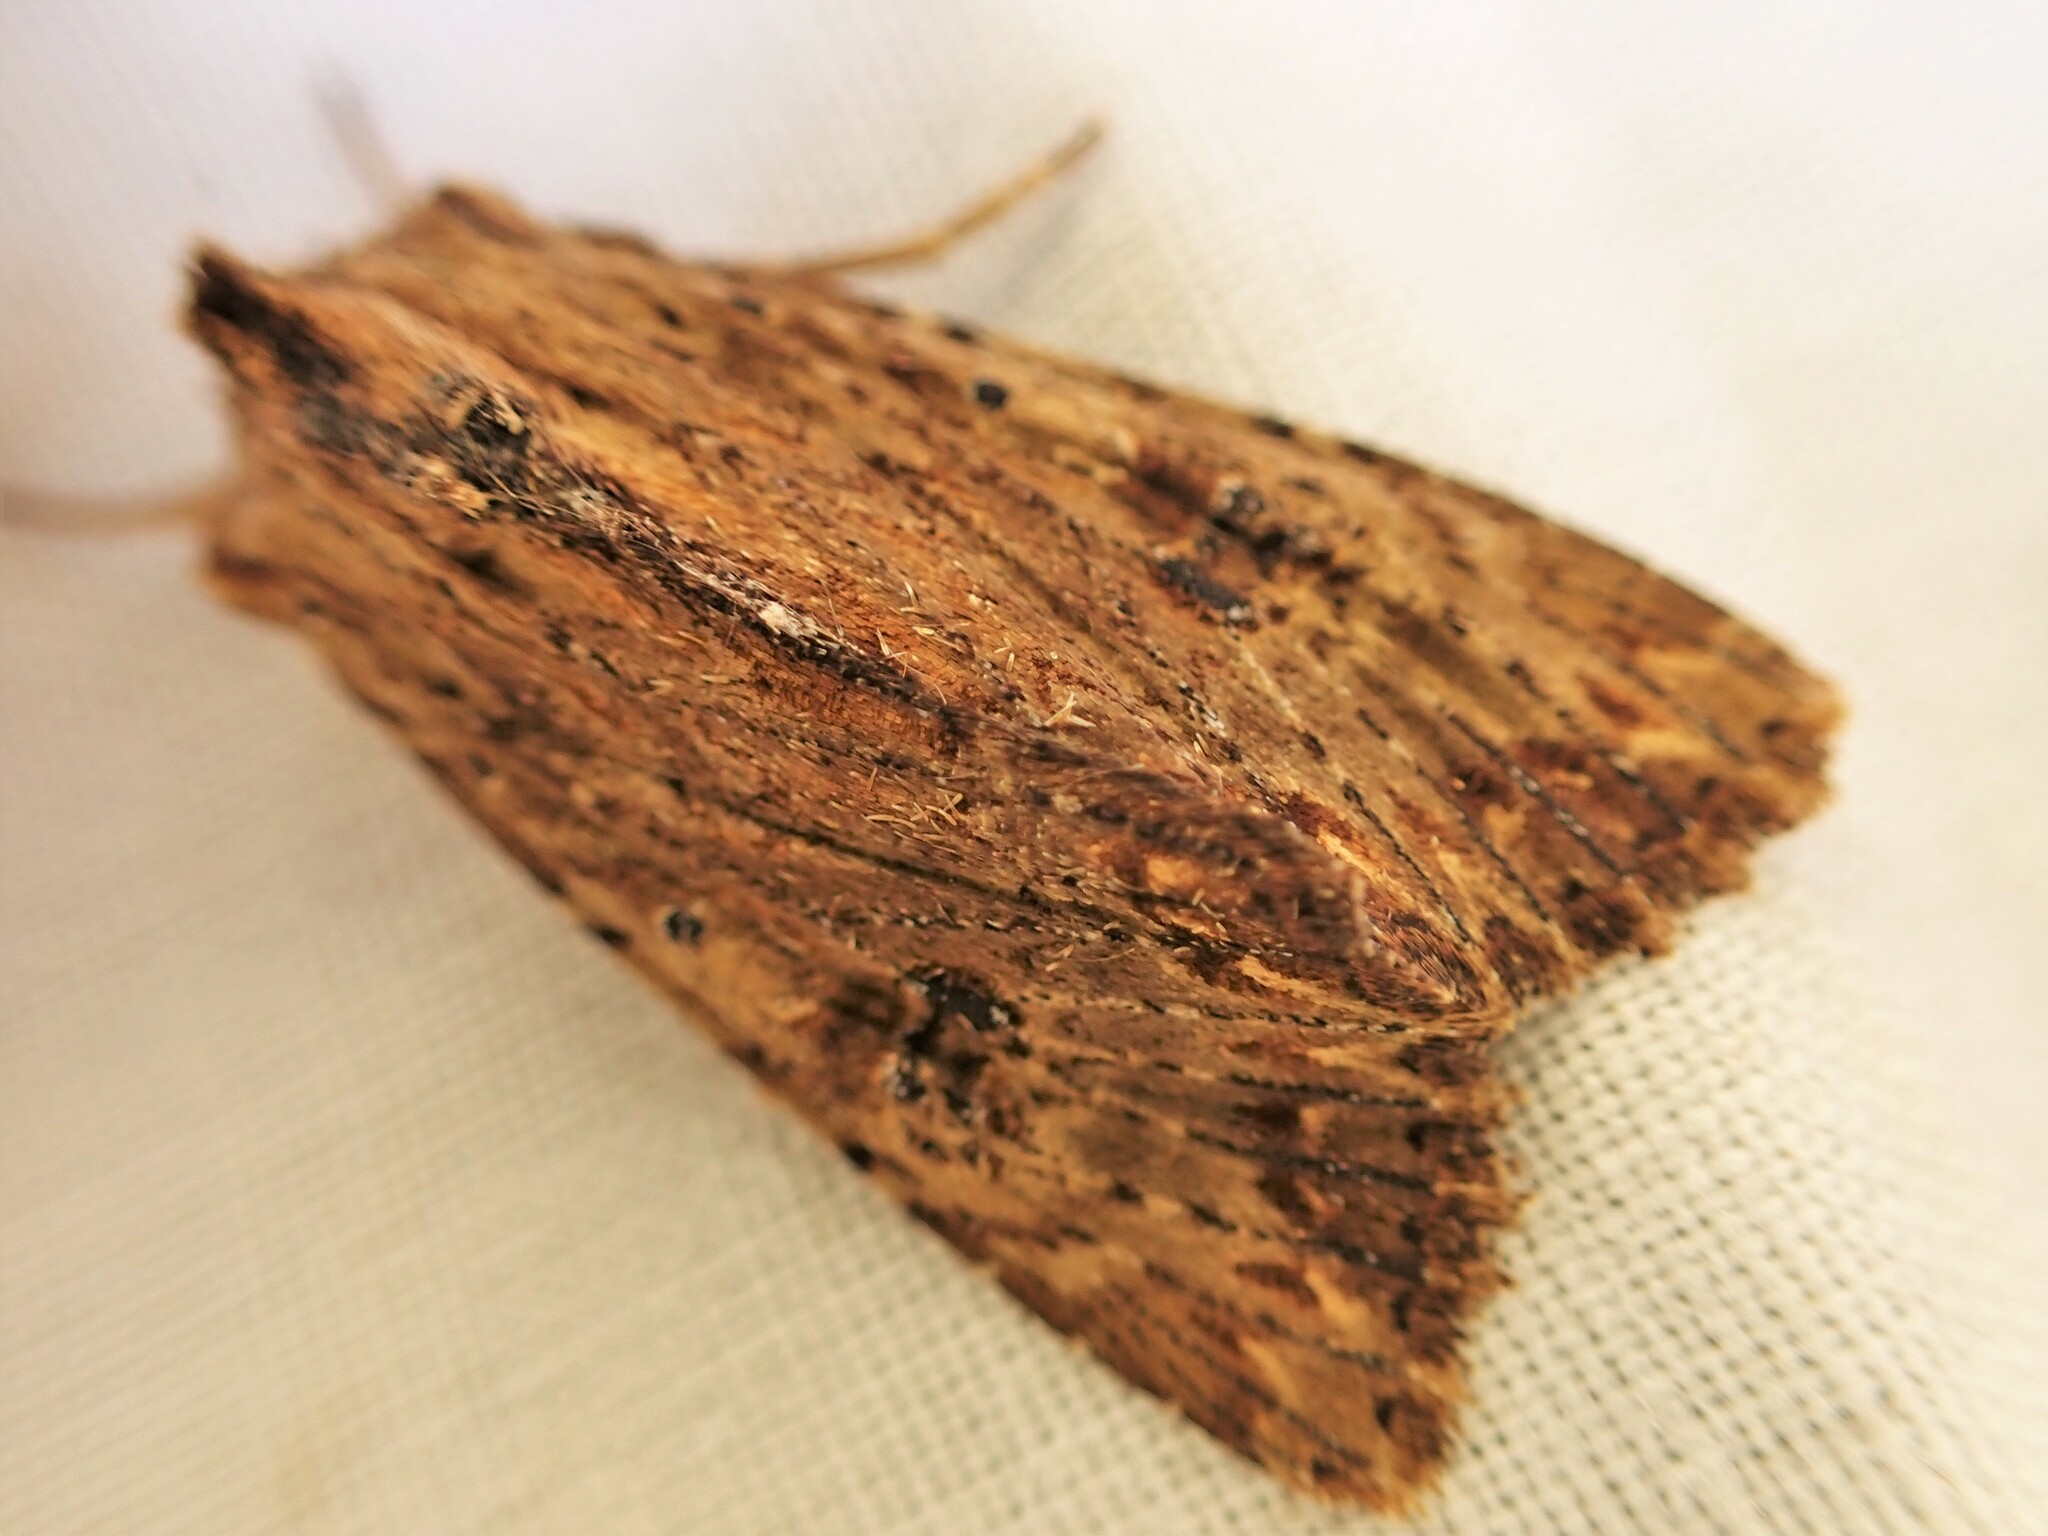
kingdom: Animalia
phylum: Arthropoda
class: Insecta
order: Lepidoptera
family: Noctuidae
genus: Ichneutica
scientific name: Ichneutica
